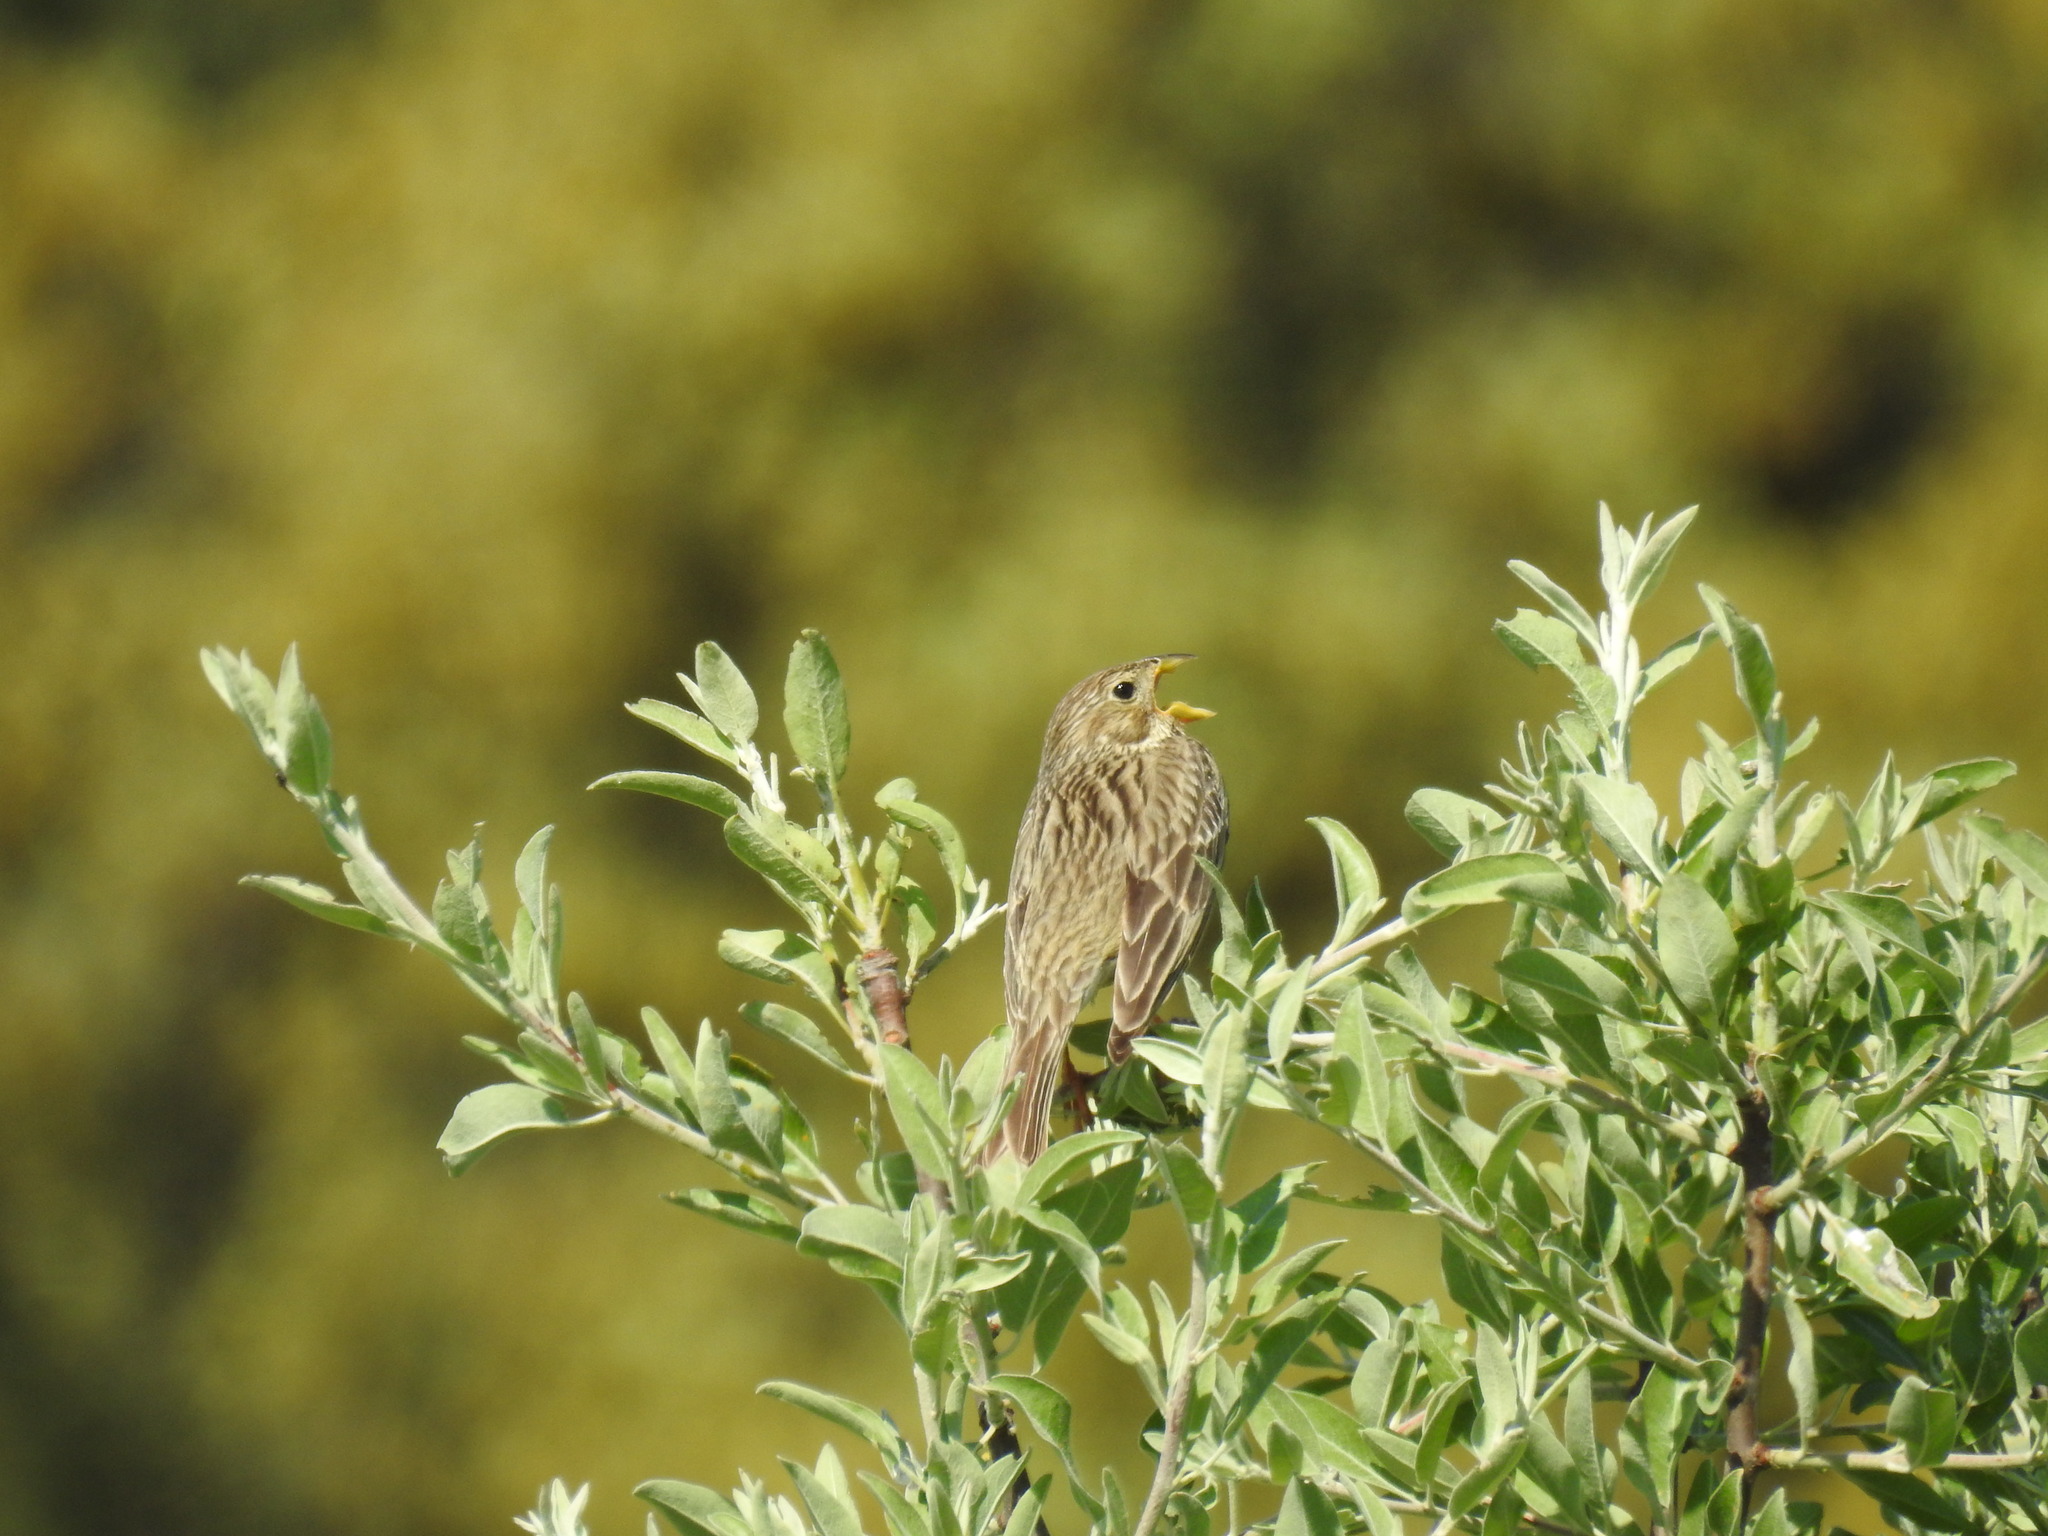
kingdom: Animalia
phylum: Chordata
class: Aves
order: Passeriformes
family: Emberizidae
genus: Emberiza
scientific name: Emberiza calandra
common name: Corn bunting
